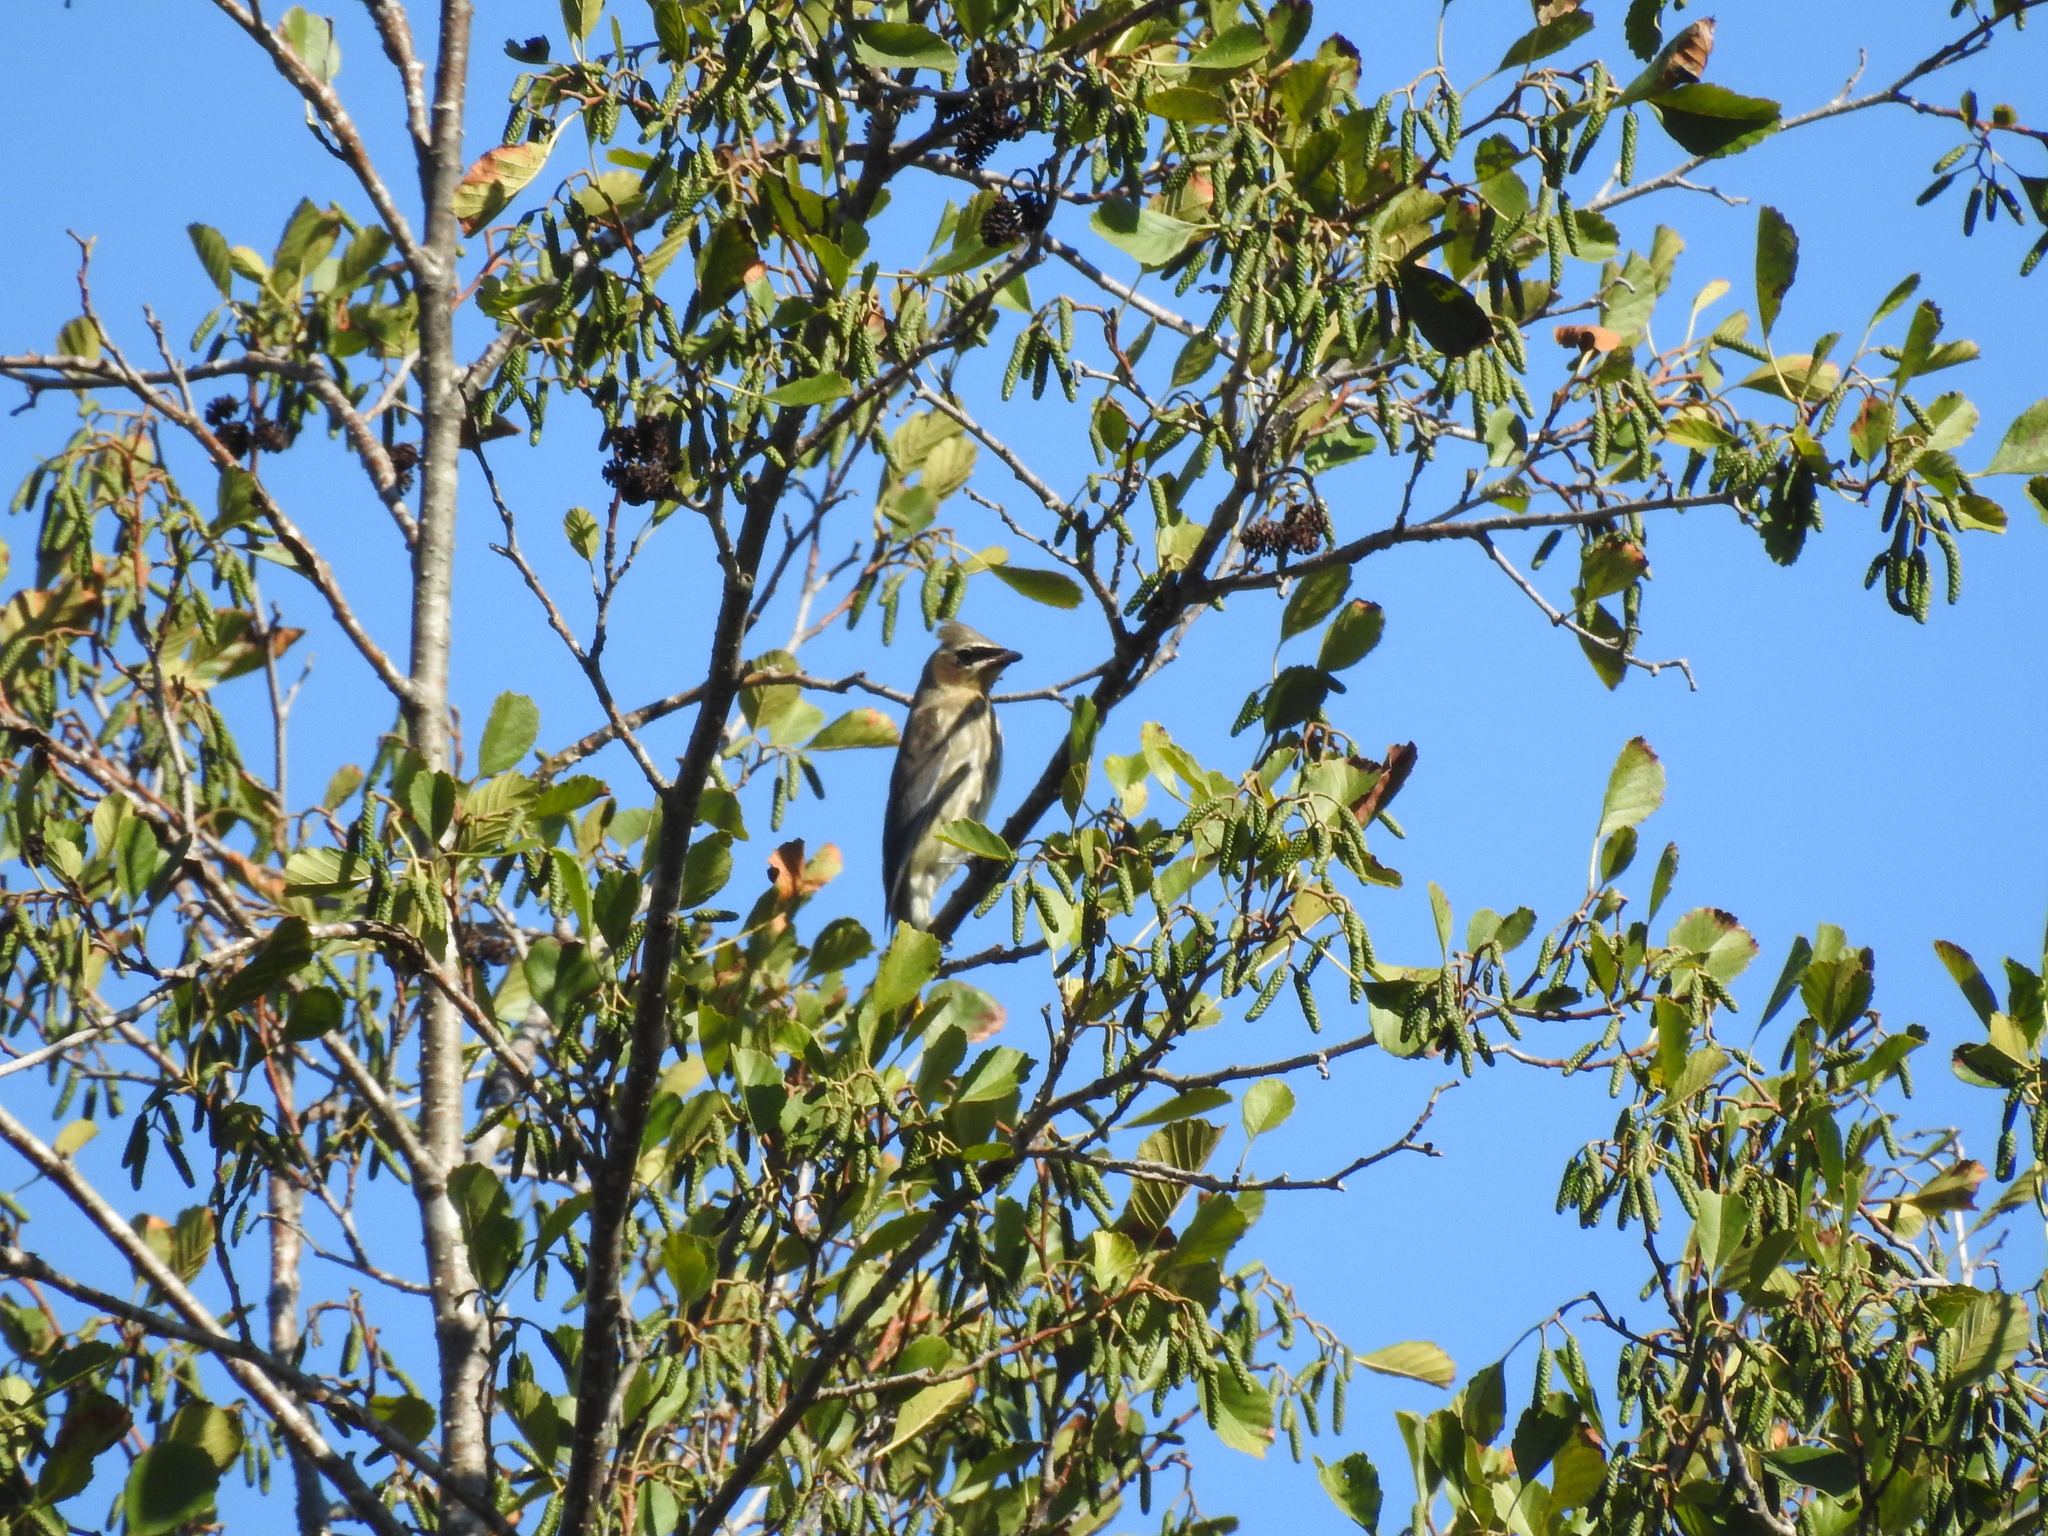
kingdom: Animalia
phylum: Chordata
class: Aves
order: Passeriformes
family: Bombycillidae
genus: Bombycilla
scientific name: Bombycilla cedrorum
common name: Cedar waxwing
